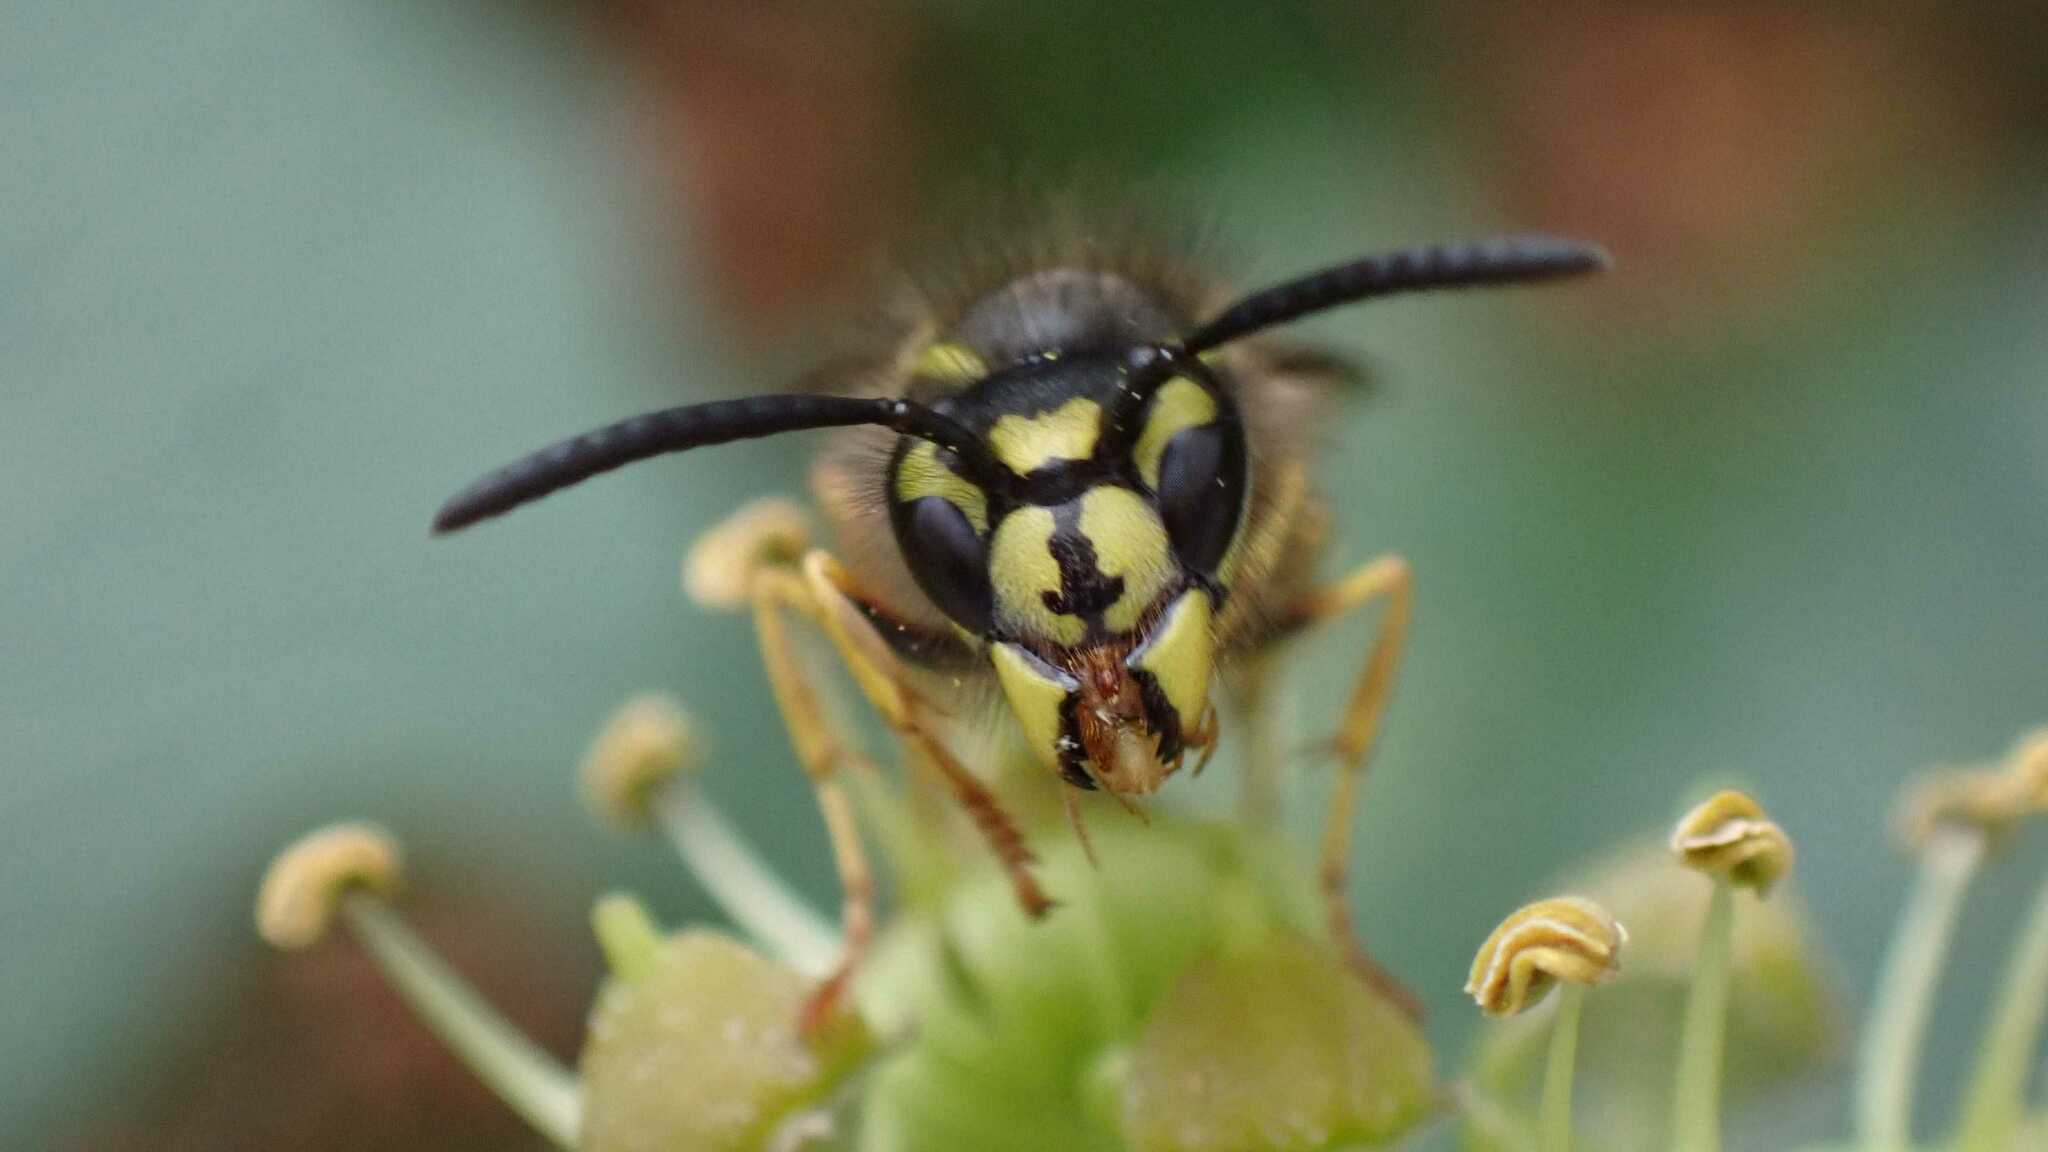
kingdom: Animalia
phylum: Arthropoda
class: Insecta
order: Hymenoptera
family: Vespidae
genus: Vespula
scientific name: Vespula vulgaris
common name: Common wasp
